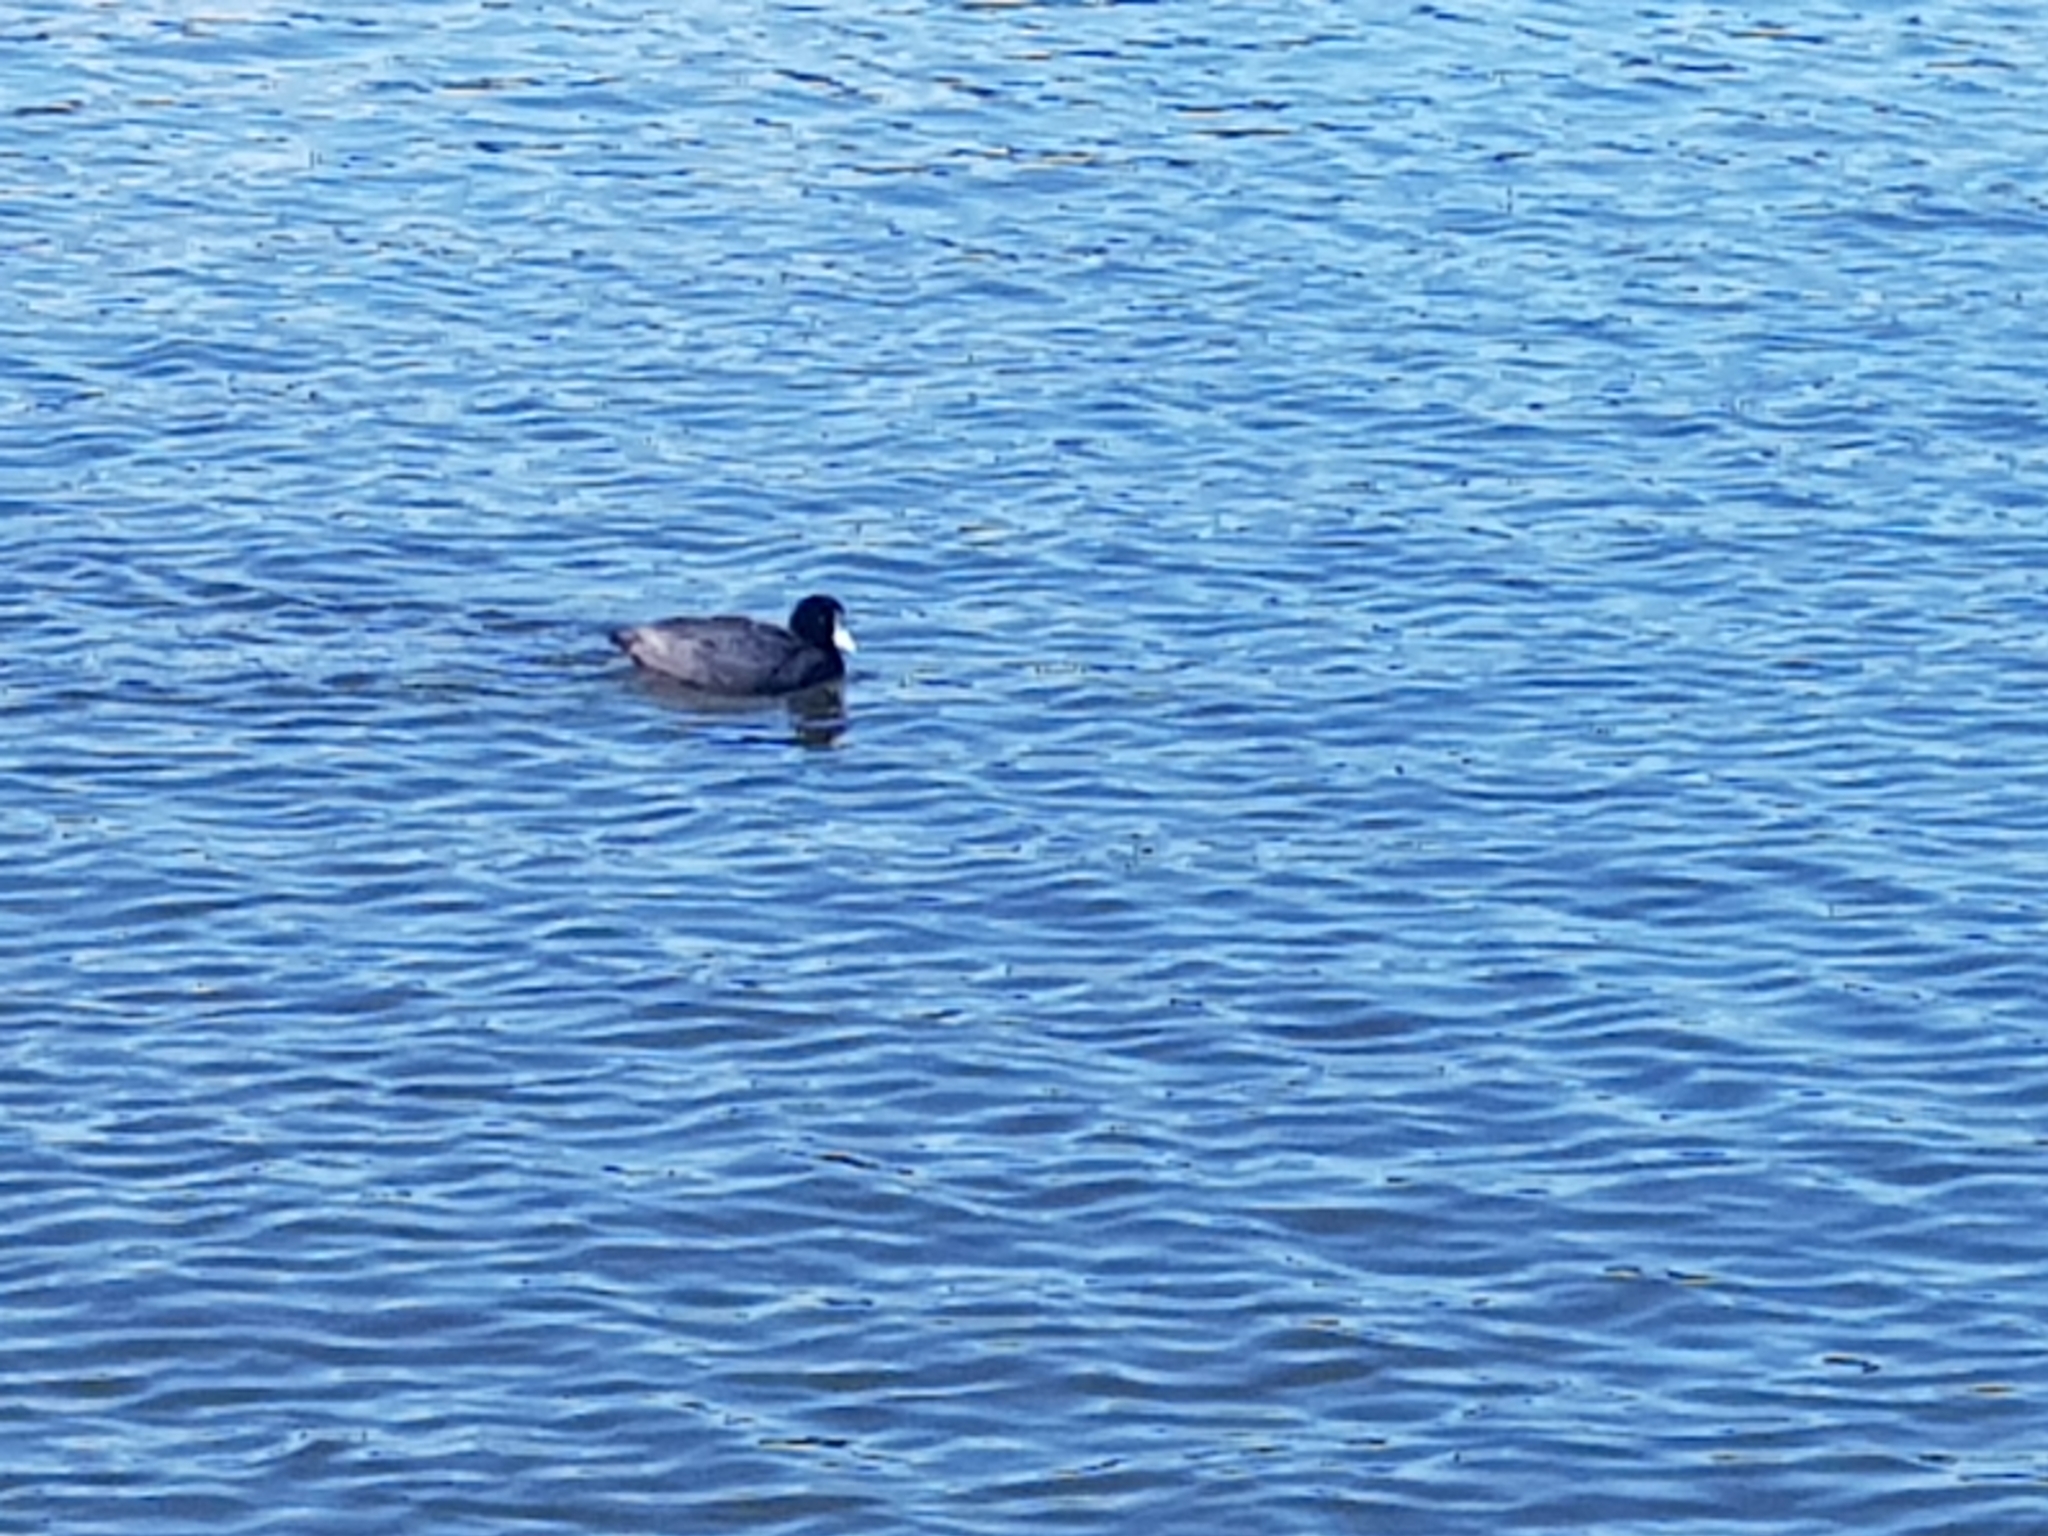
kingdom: Animalia
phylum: Chordata
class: Aves
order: Gruiformes
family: Rallidae
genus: Fulica
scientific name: Fulica atra
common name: Eurasian coot
